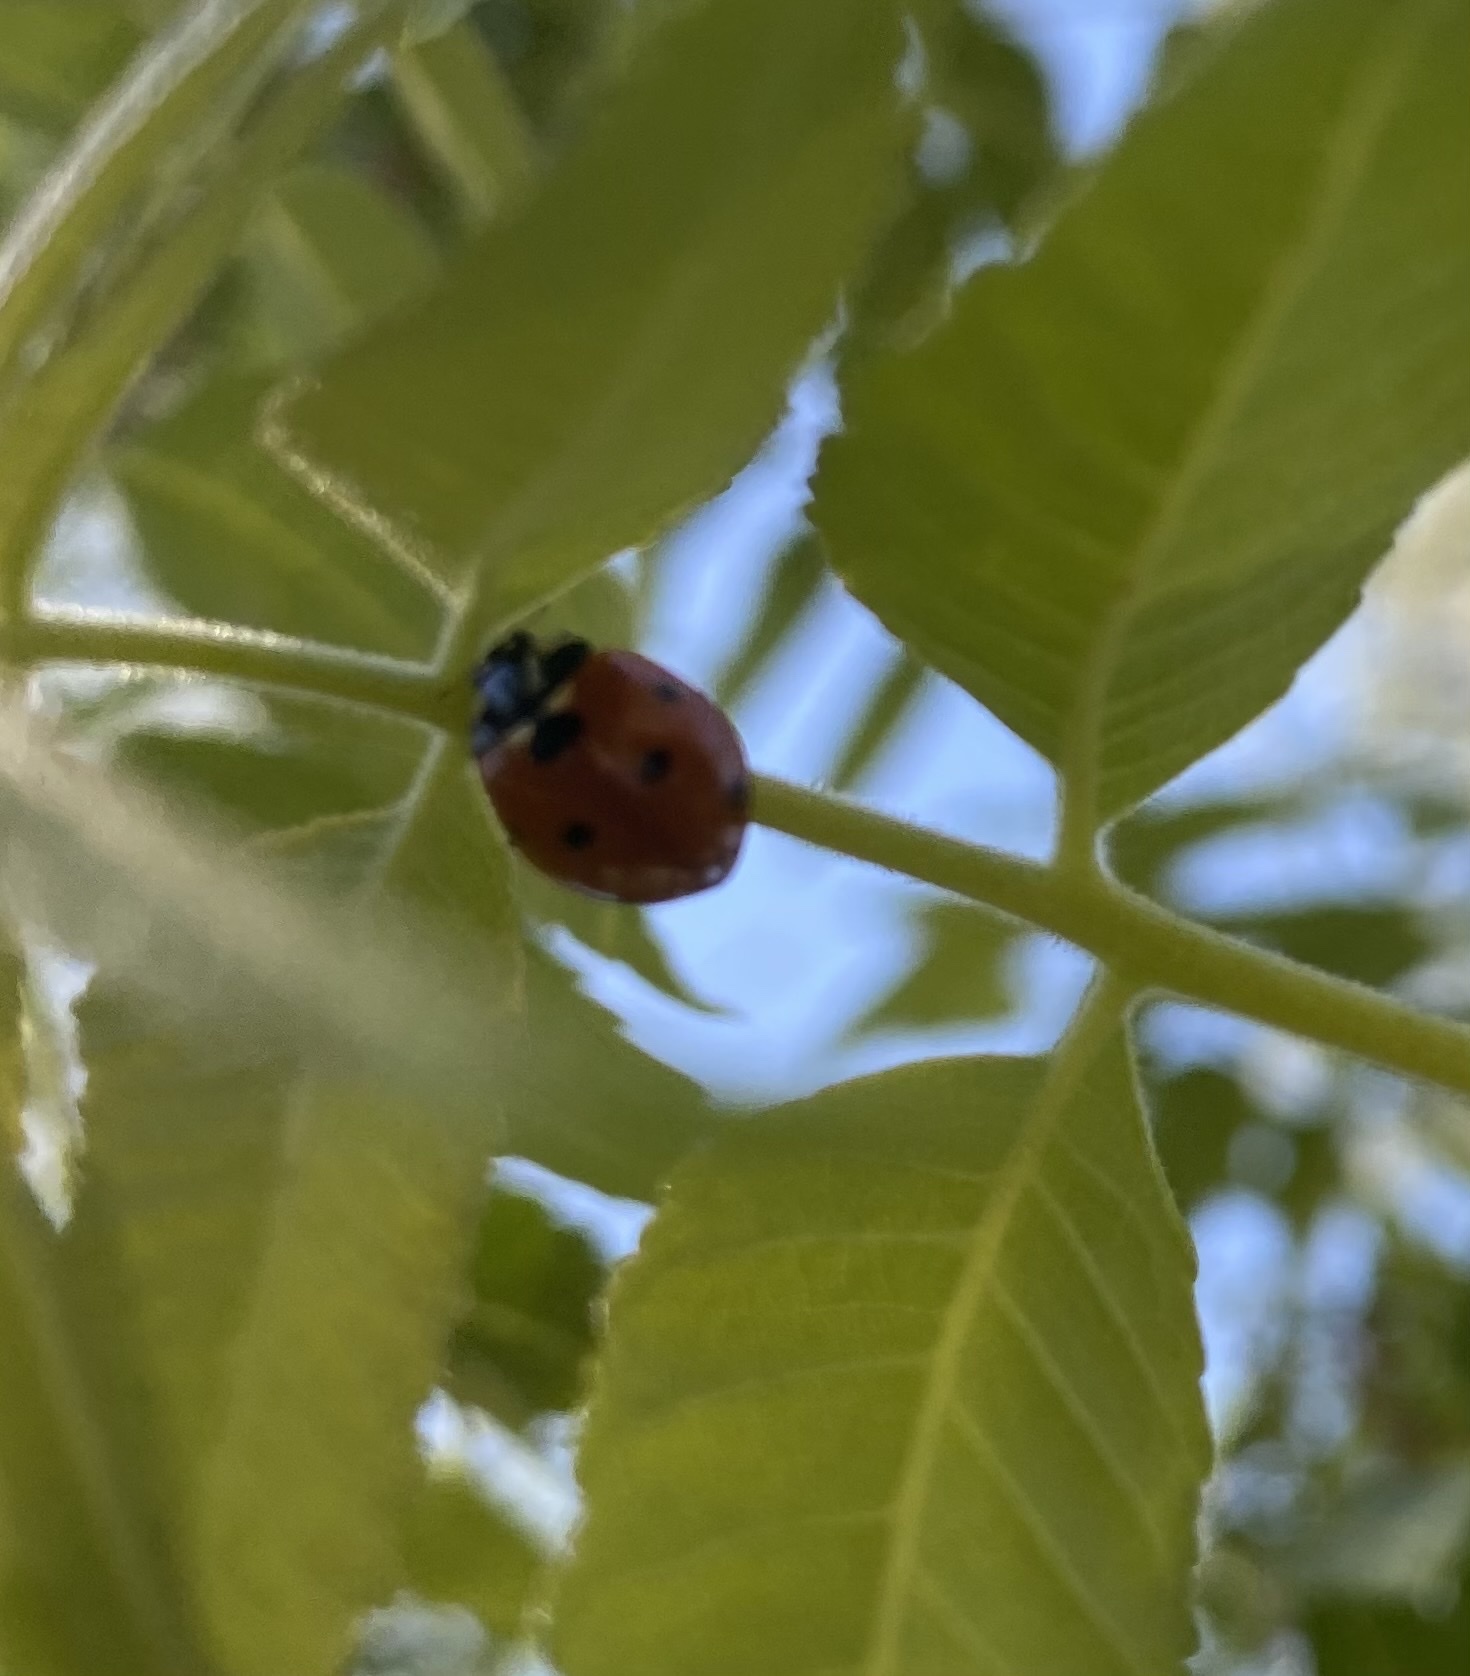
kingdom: Animalia
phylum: Arthropoda
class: Insecta
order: Coleoptera
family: Coccinellidae
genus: Coccinella
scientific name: Coccinella septempunctata
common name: Sevenspotted lady beetle
